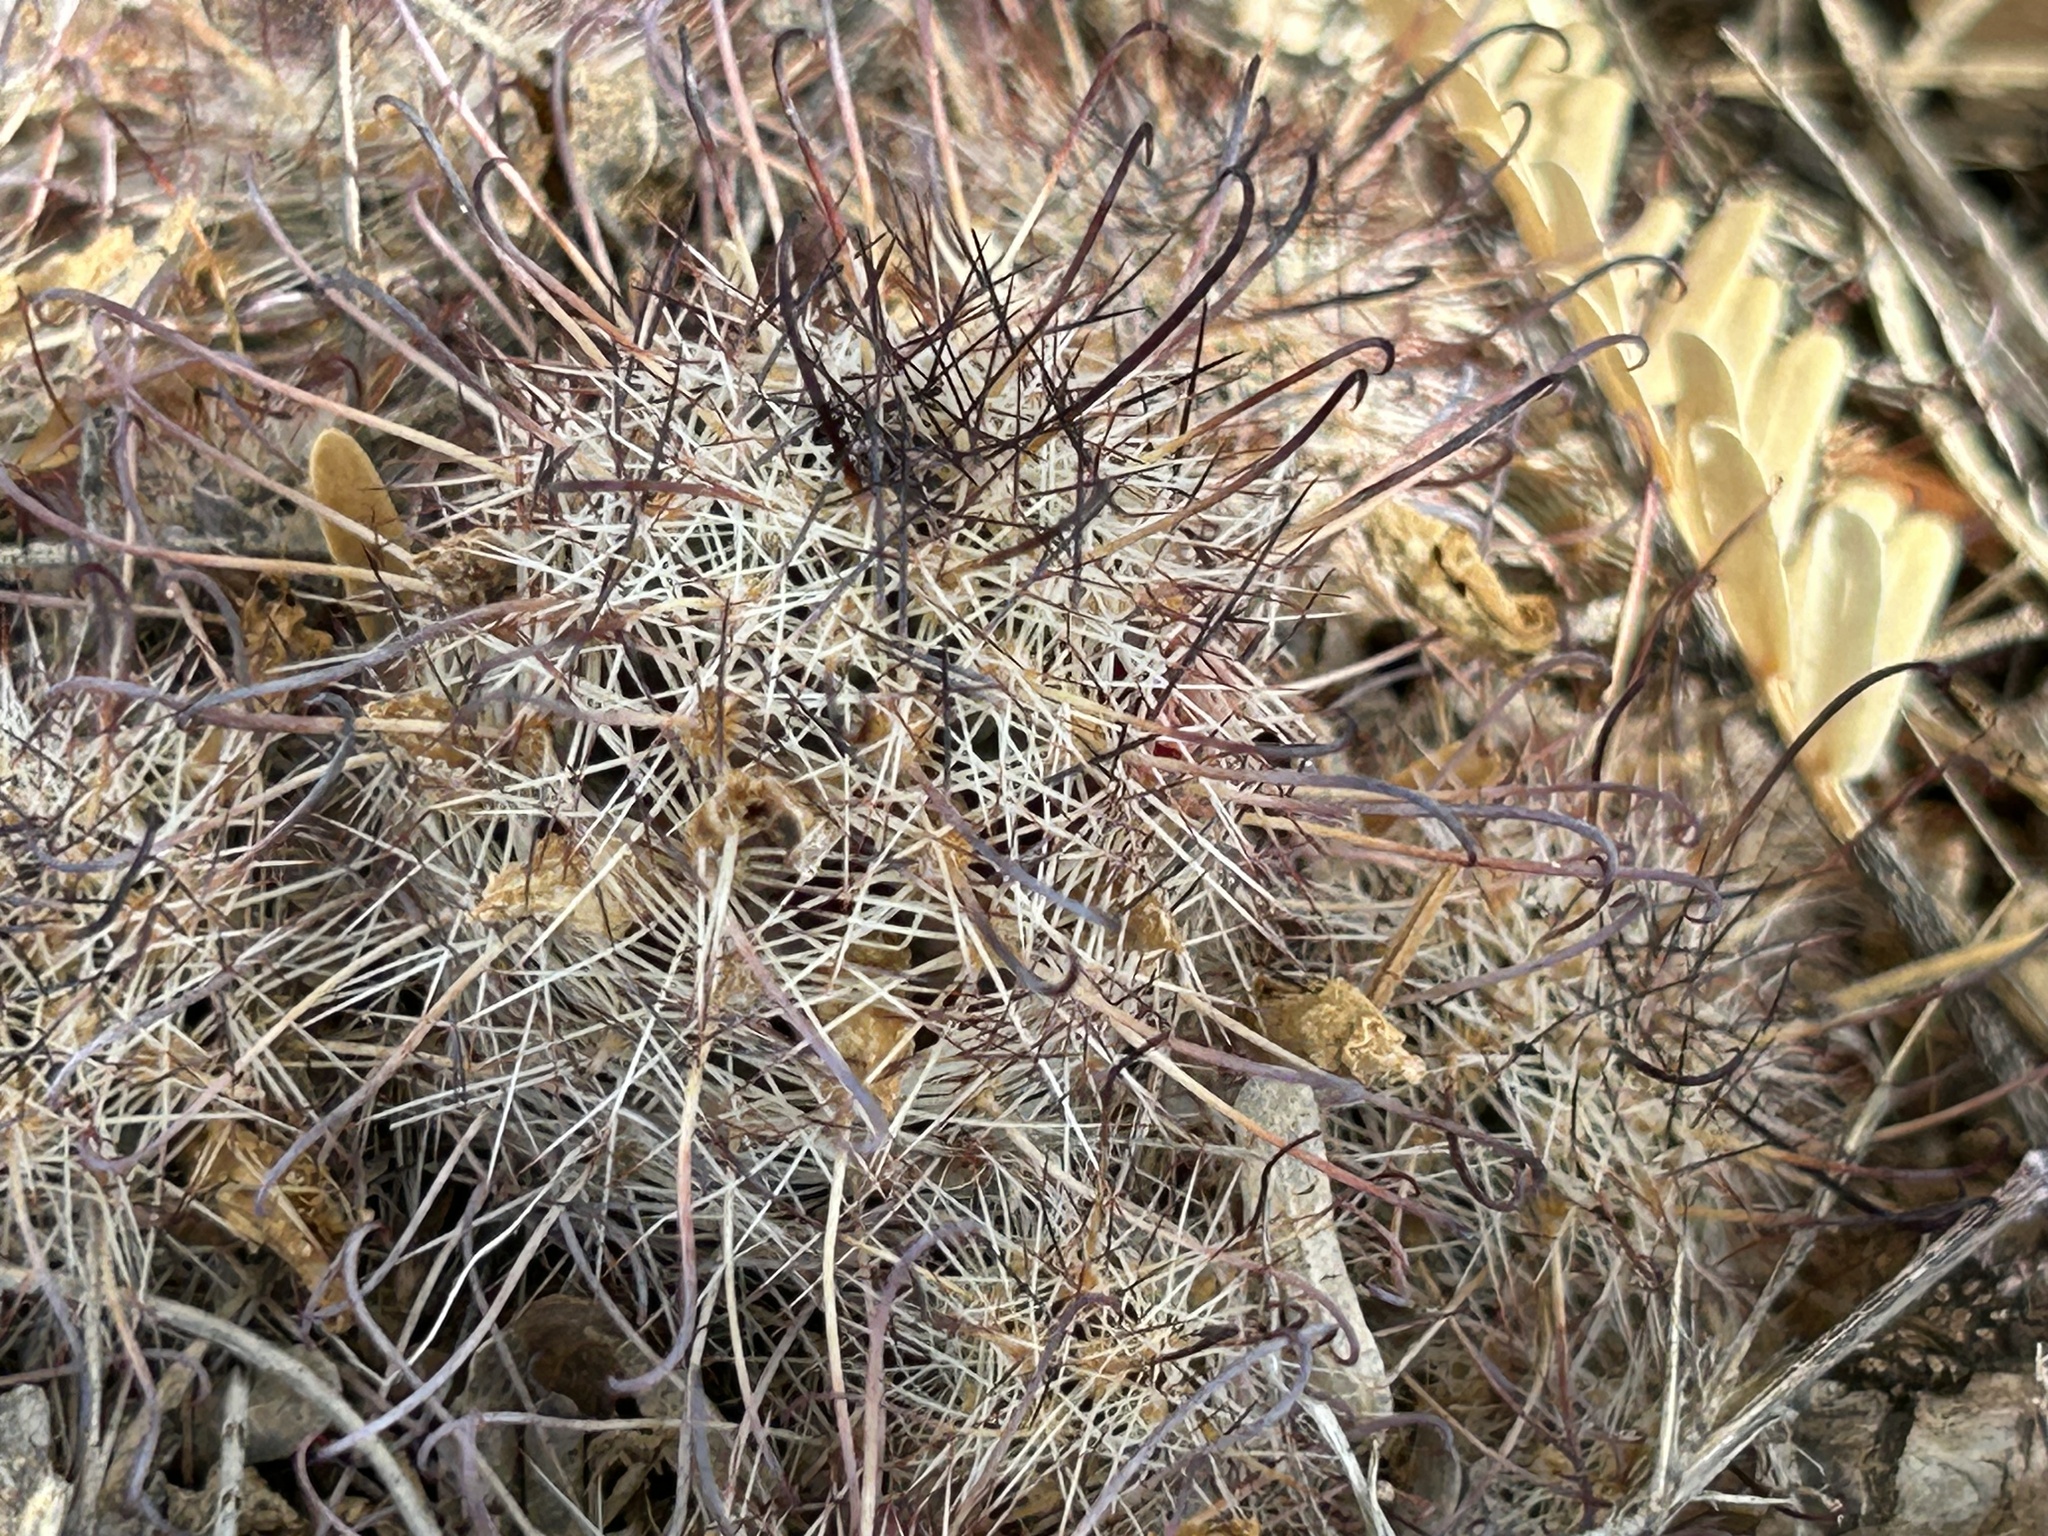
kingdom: Plantae
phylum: Tracheophyta
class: Magnoliopsida
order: Caryophyllales
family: Cactaceae
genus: Cochemiea
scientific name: Cochemiea grahamii
